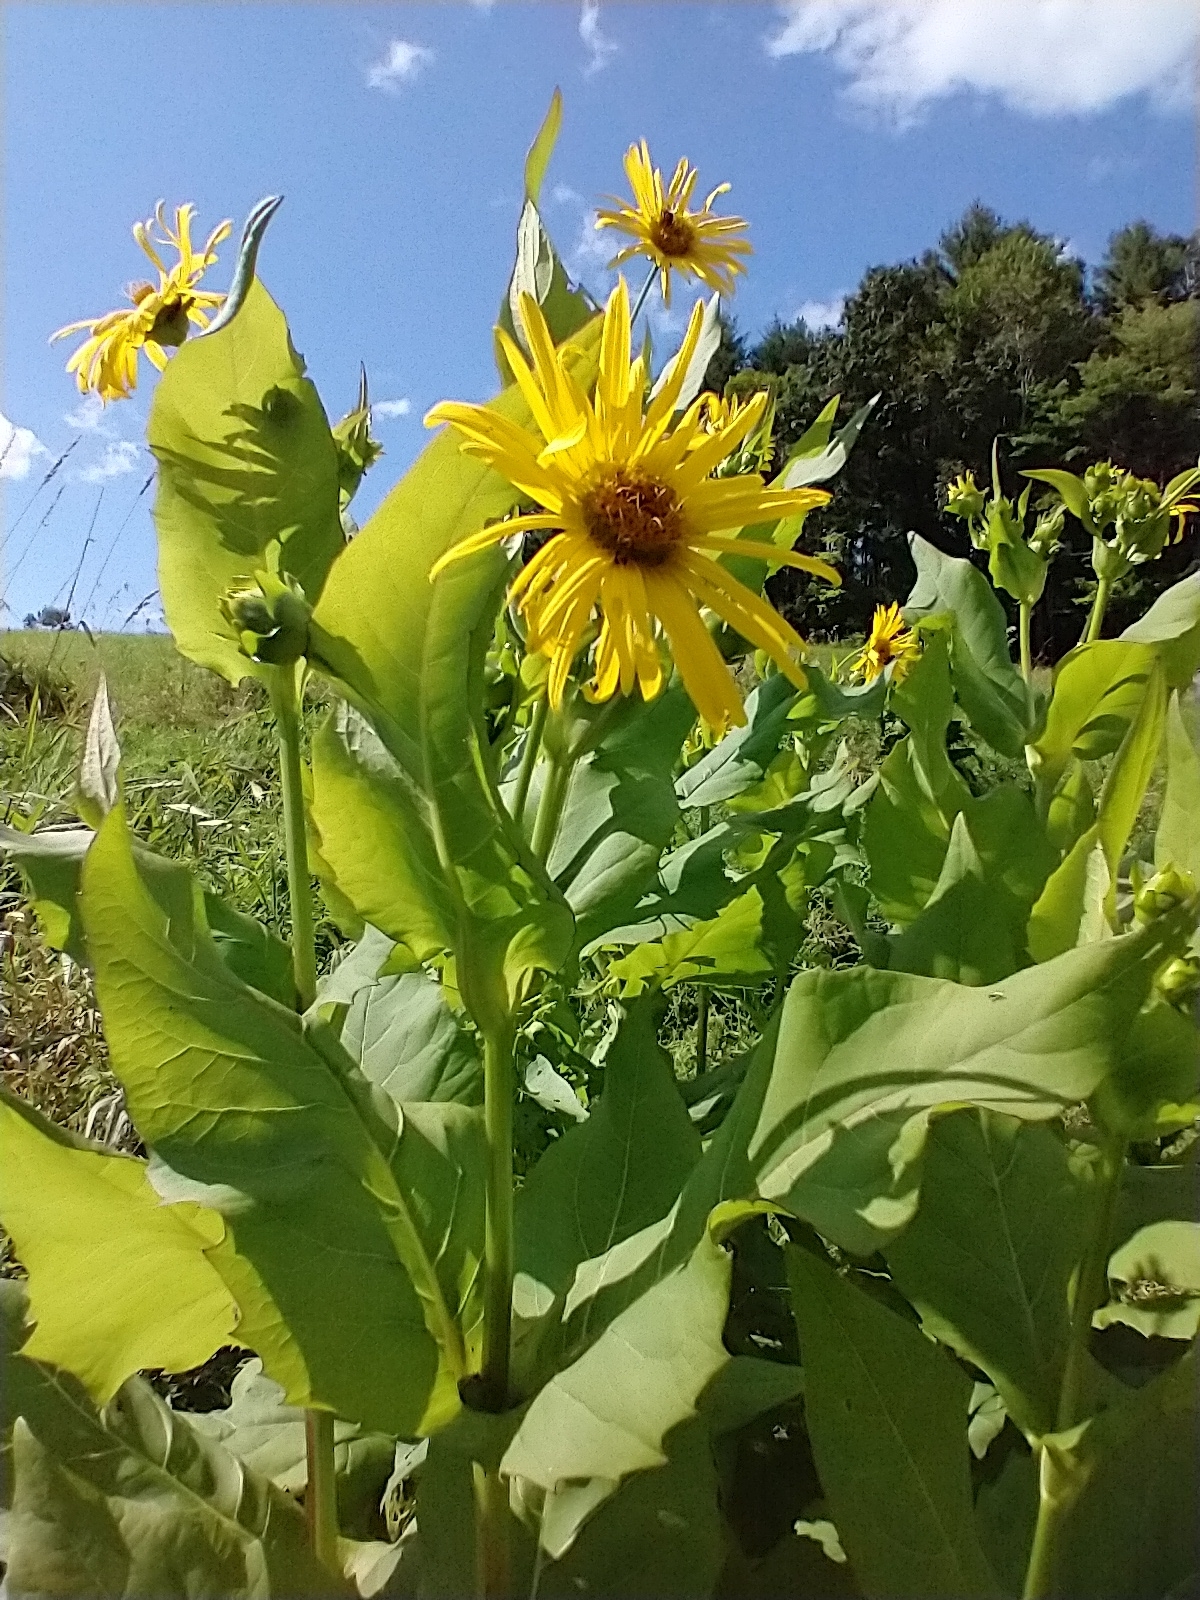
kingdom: Plantae
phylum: Tracheophyta
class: Magnoliopsida
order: Asterales
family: Asteraceae
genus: Silphium
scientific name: Silphium perfoliatum
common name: Cup-plant
